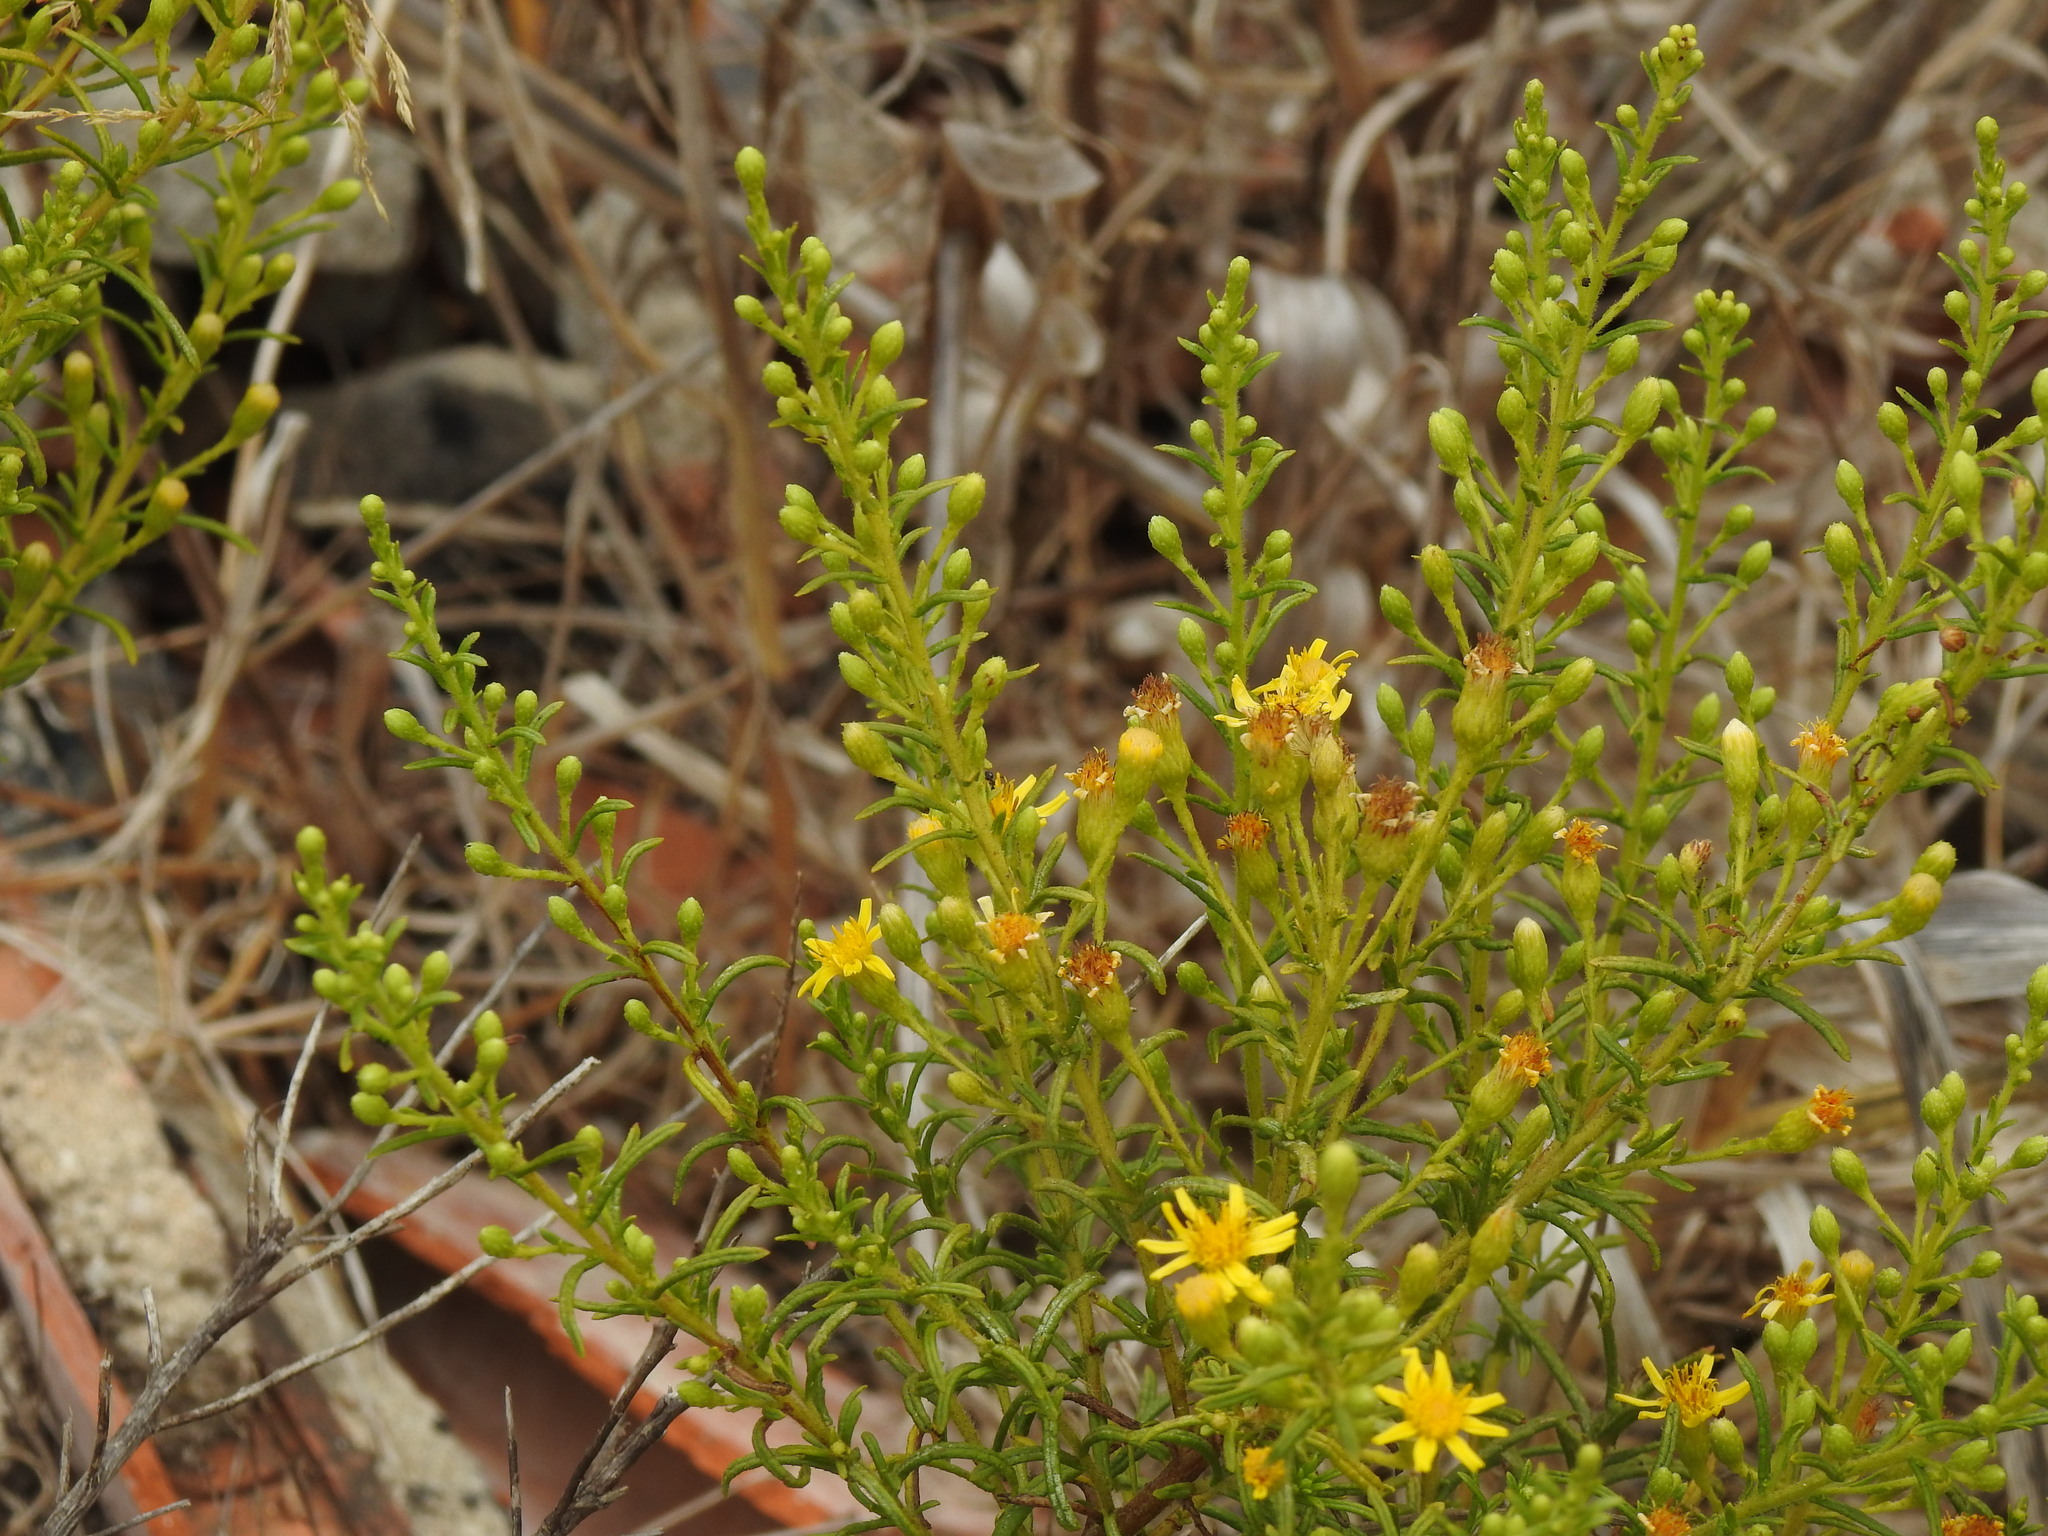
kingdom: Plantae
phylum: Tracheophyta
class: Magnoliopsida
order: Asterales
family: Asteraceae
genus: Dittrichia
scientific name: Dittrichia viscosa
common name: Woody fleabane
